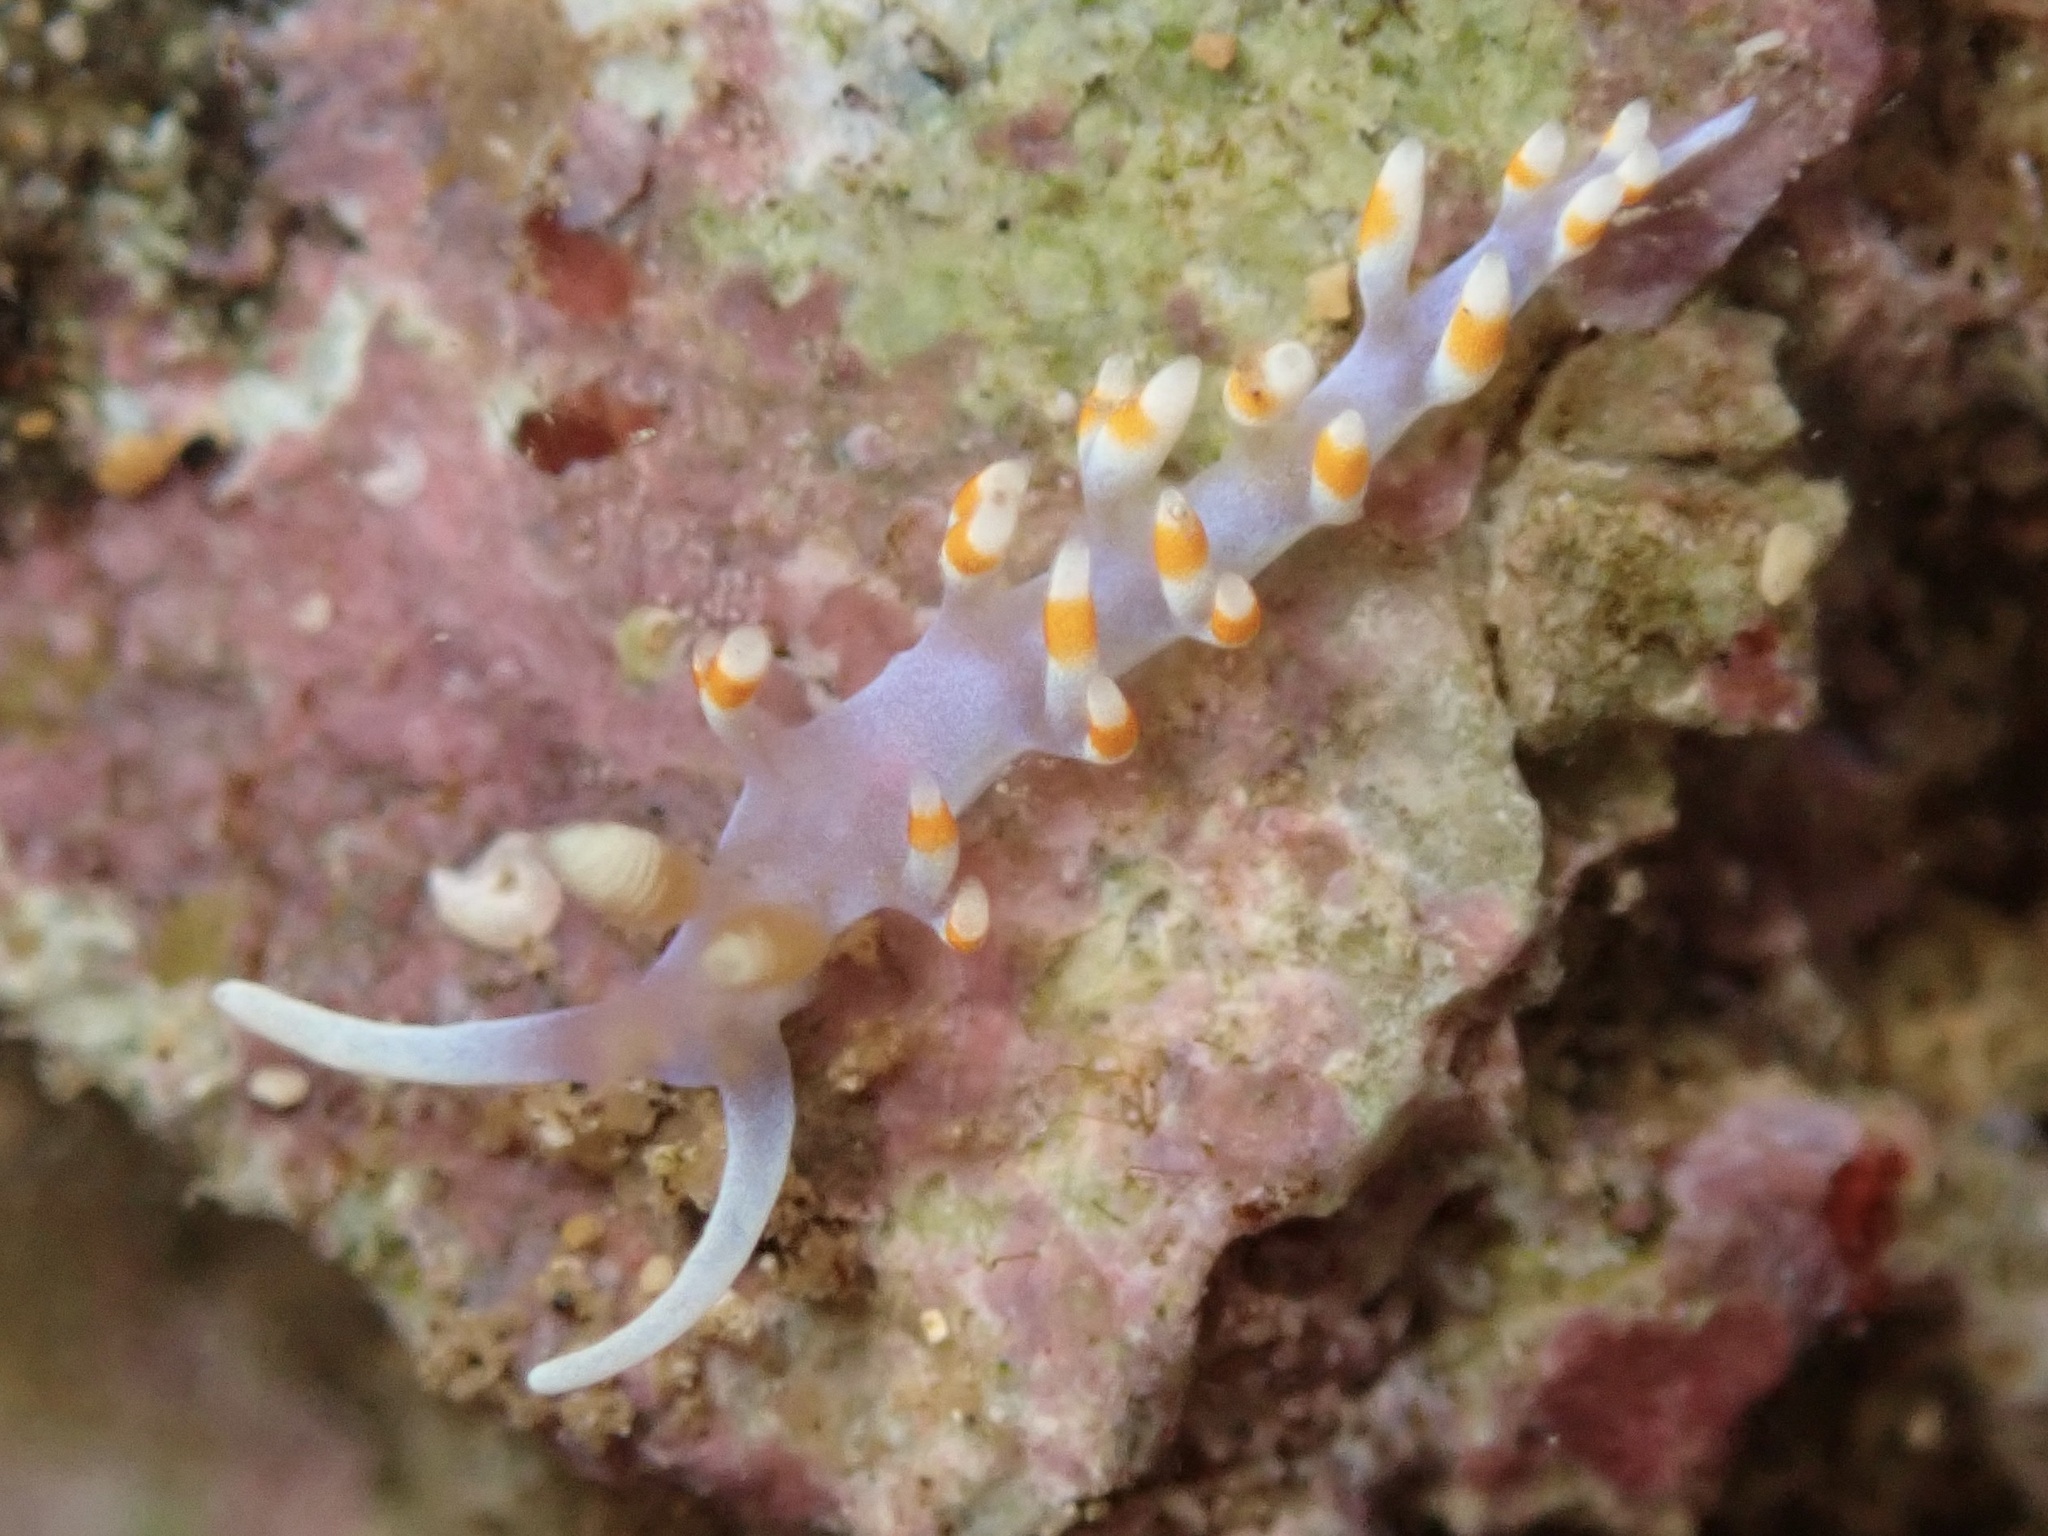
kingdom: Animalia
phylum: Mollusca
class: Gastropoda
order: Nudibranchia
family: Samlidae
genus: Samla
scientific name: Samla bicolor
